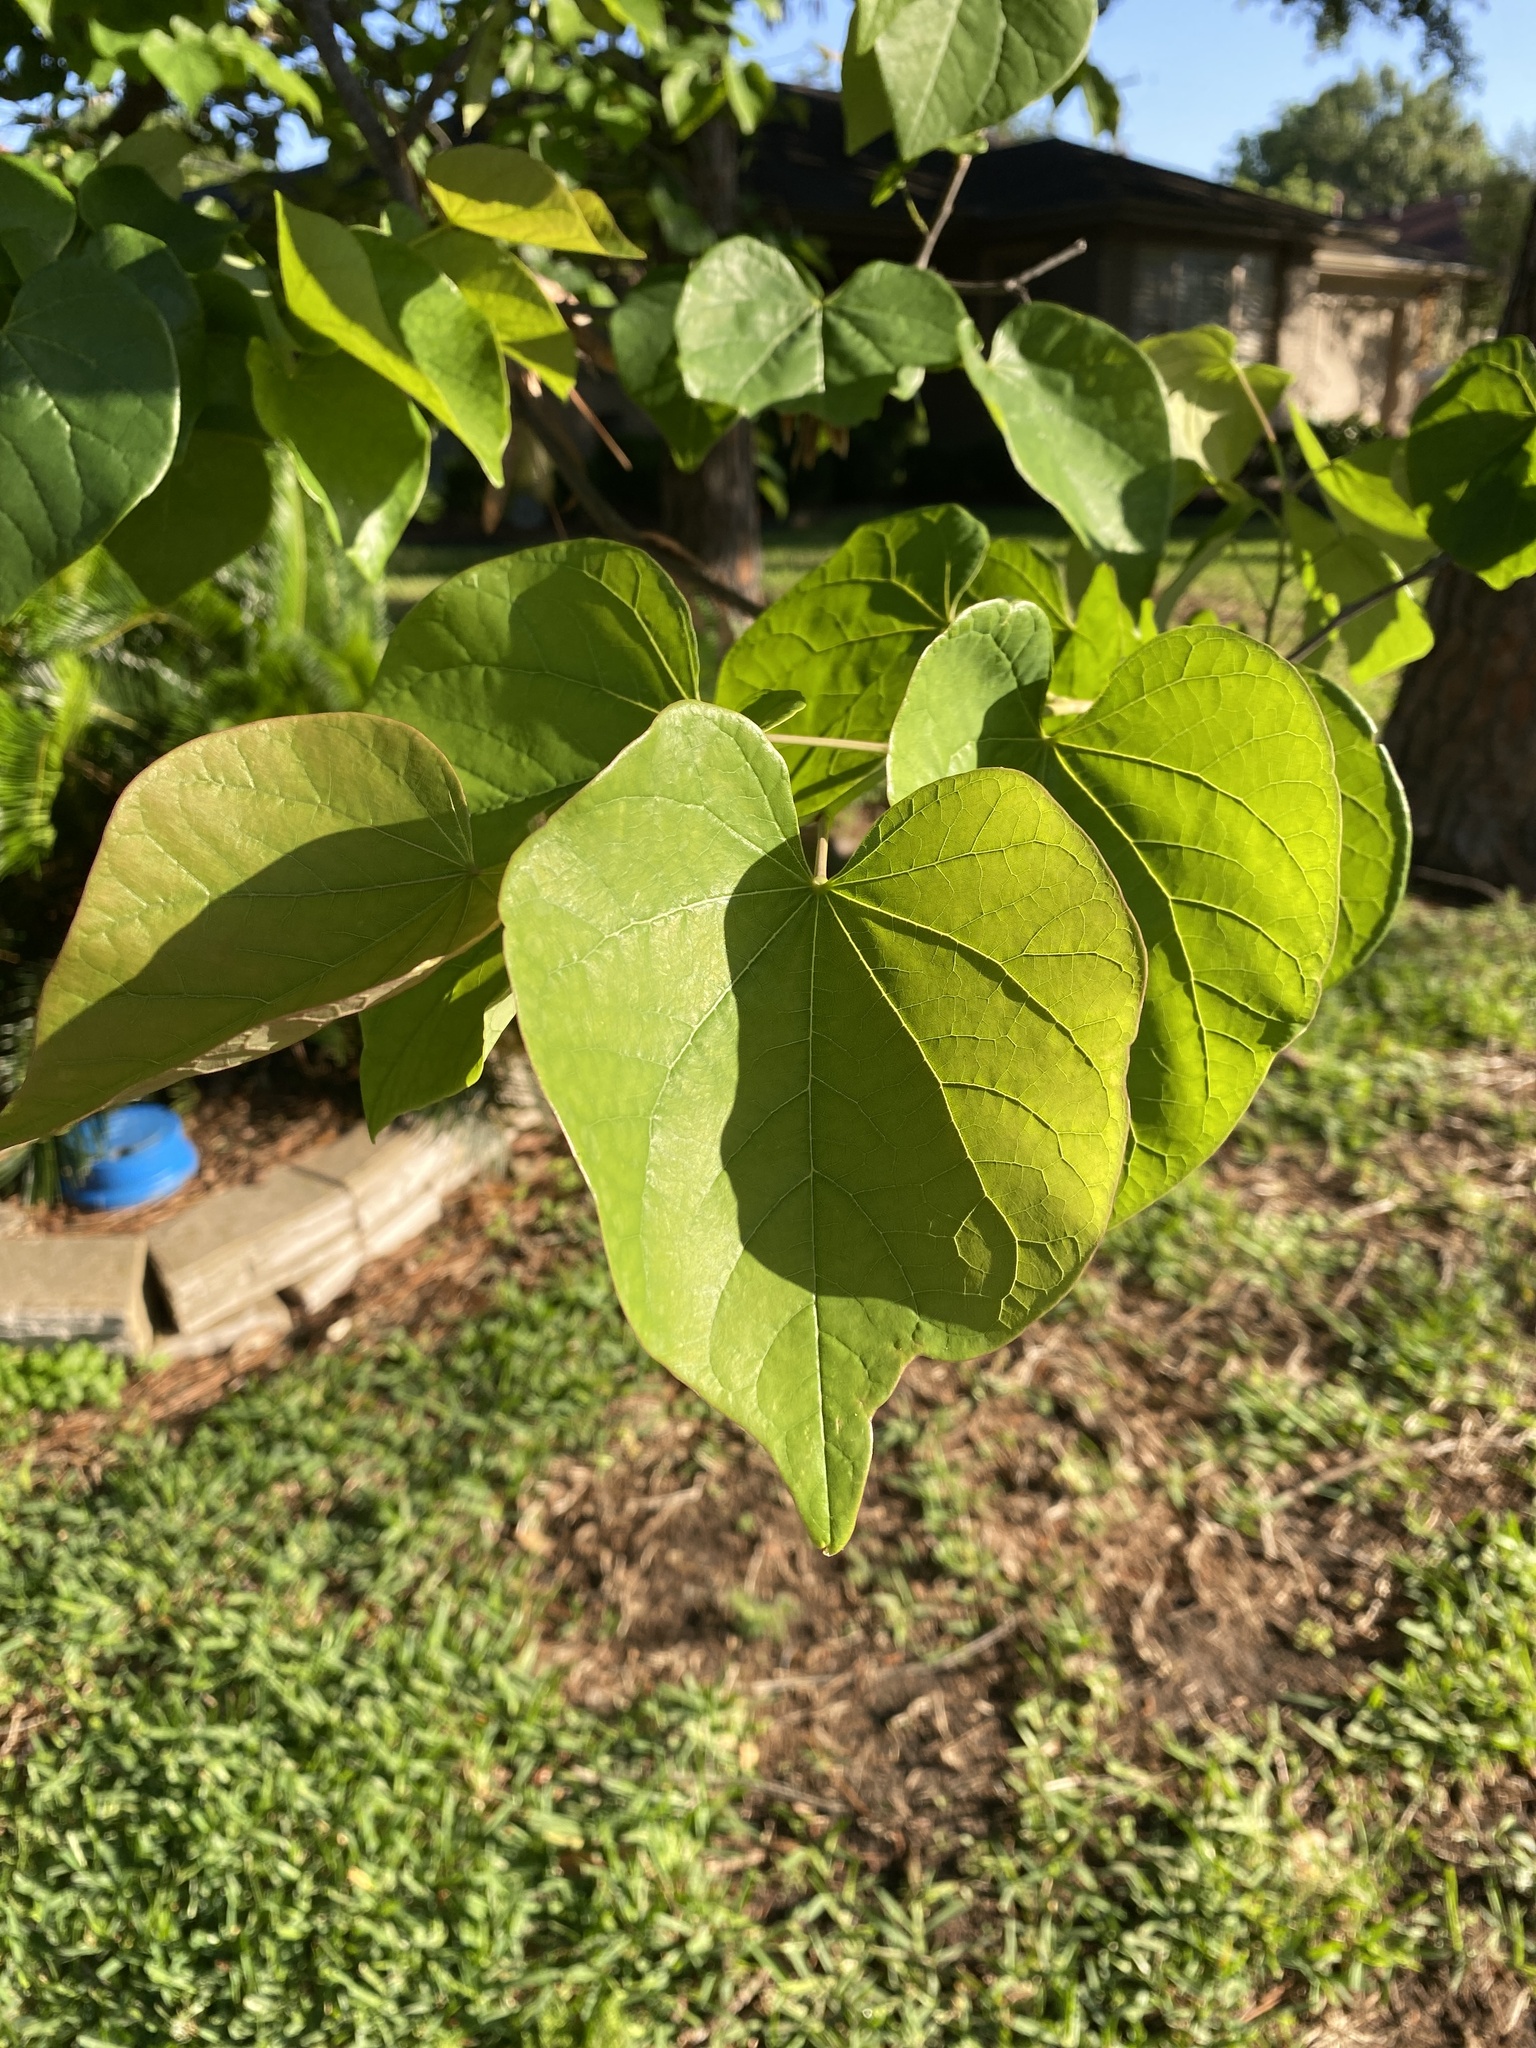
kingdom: Plantae
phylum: Tracheophyta
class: Magnoliopsida
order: Fabales
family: Fabaceae
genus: Cercis
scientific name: Cercis canadensis
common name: Eastern redbud
